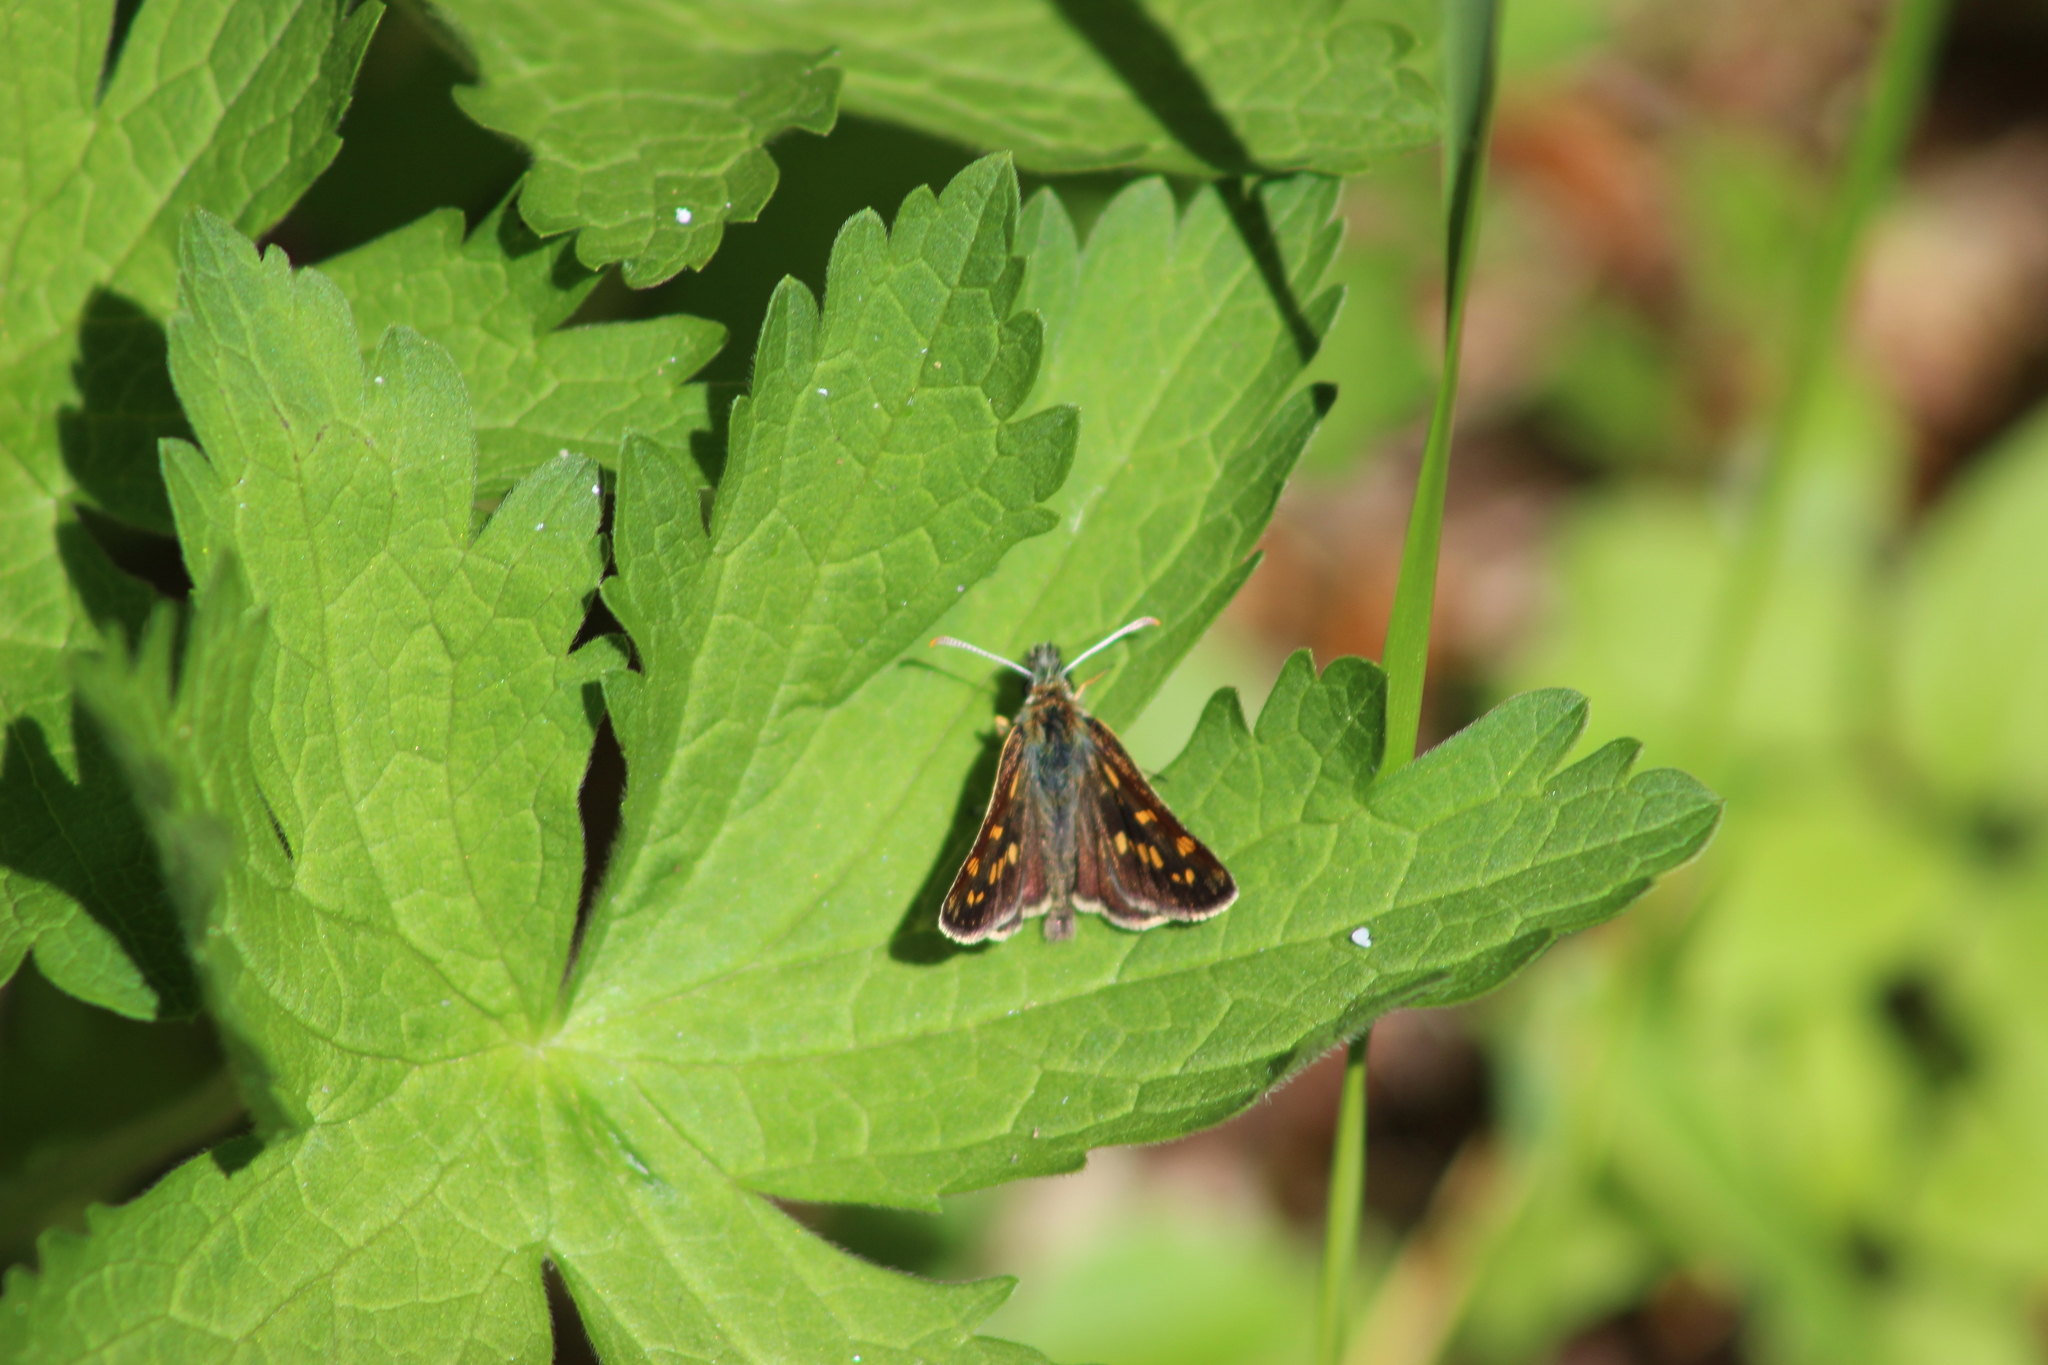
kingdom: Animalia
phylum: Arthropoda
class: Insecta
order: Lepidoptera
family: Hesperiidae
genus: Carterocephalus
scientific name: Carterocephalus palaemon
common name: Chequered skipper
